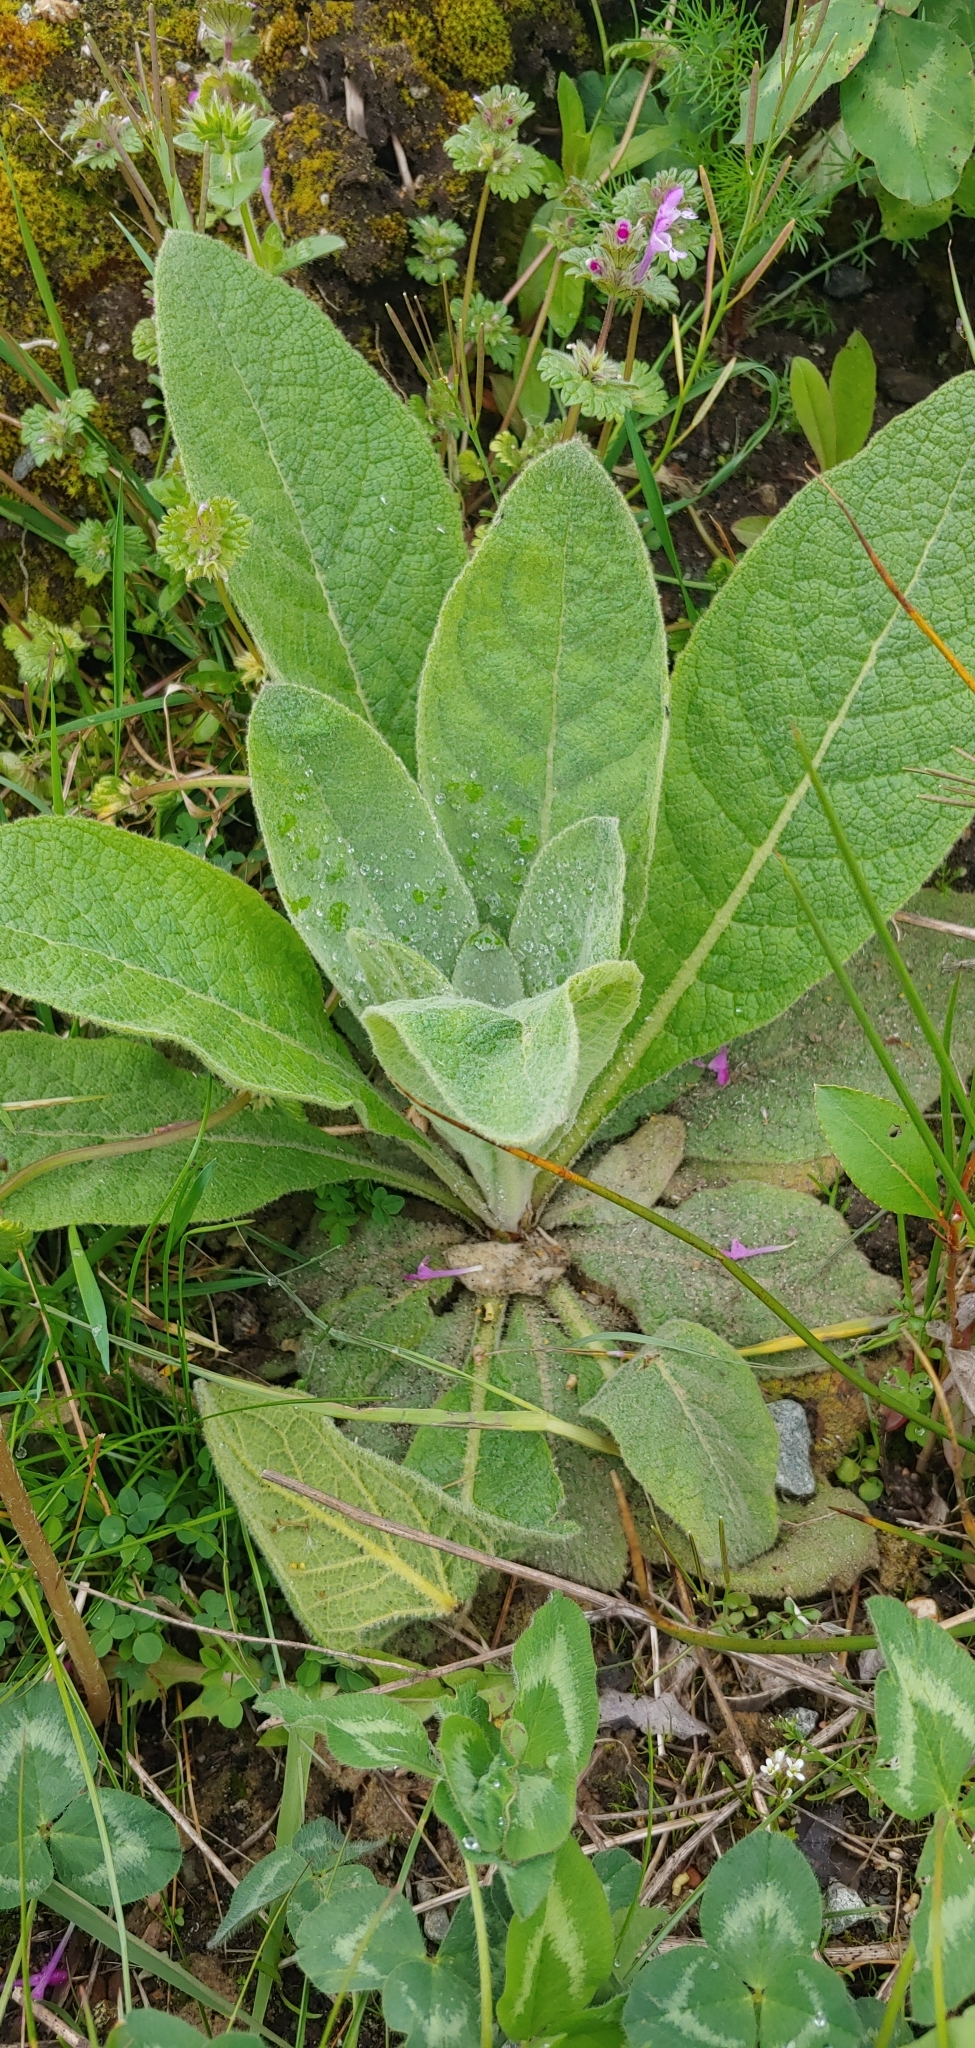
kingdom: Plantae
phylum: Tracheophyta
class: Magnoliopsida
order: Lamiales
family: Scrophulariaceae
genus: Verbascum
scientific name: Verbascum thapsus
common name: Common mullein
